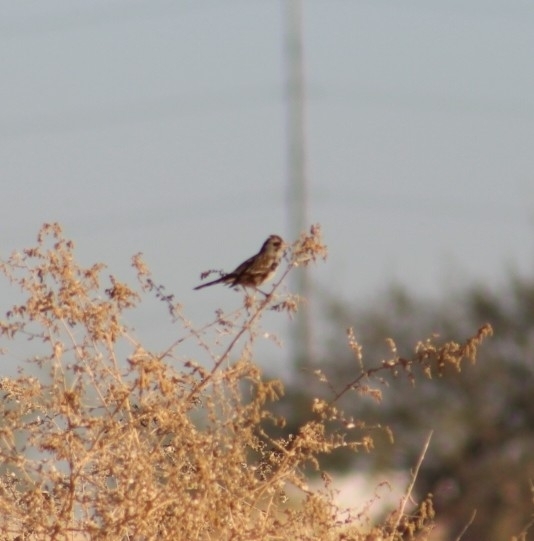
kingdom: Animalia
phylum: Chordata
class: Aves
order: Passeriformes
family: Passerellidae
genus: Zonotrichia
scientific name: Zonotrichia leucophrys
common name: White-crowned sparrow
